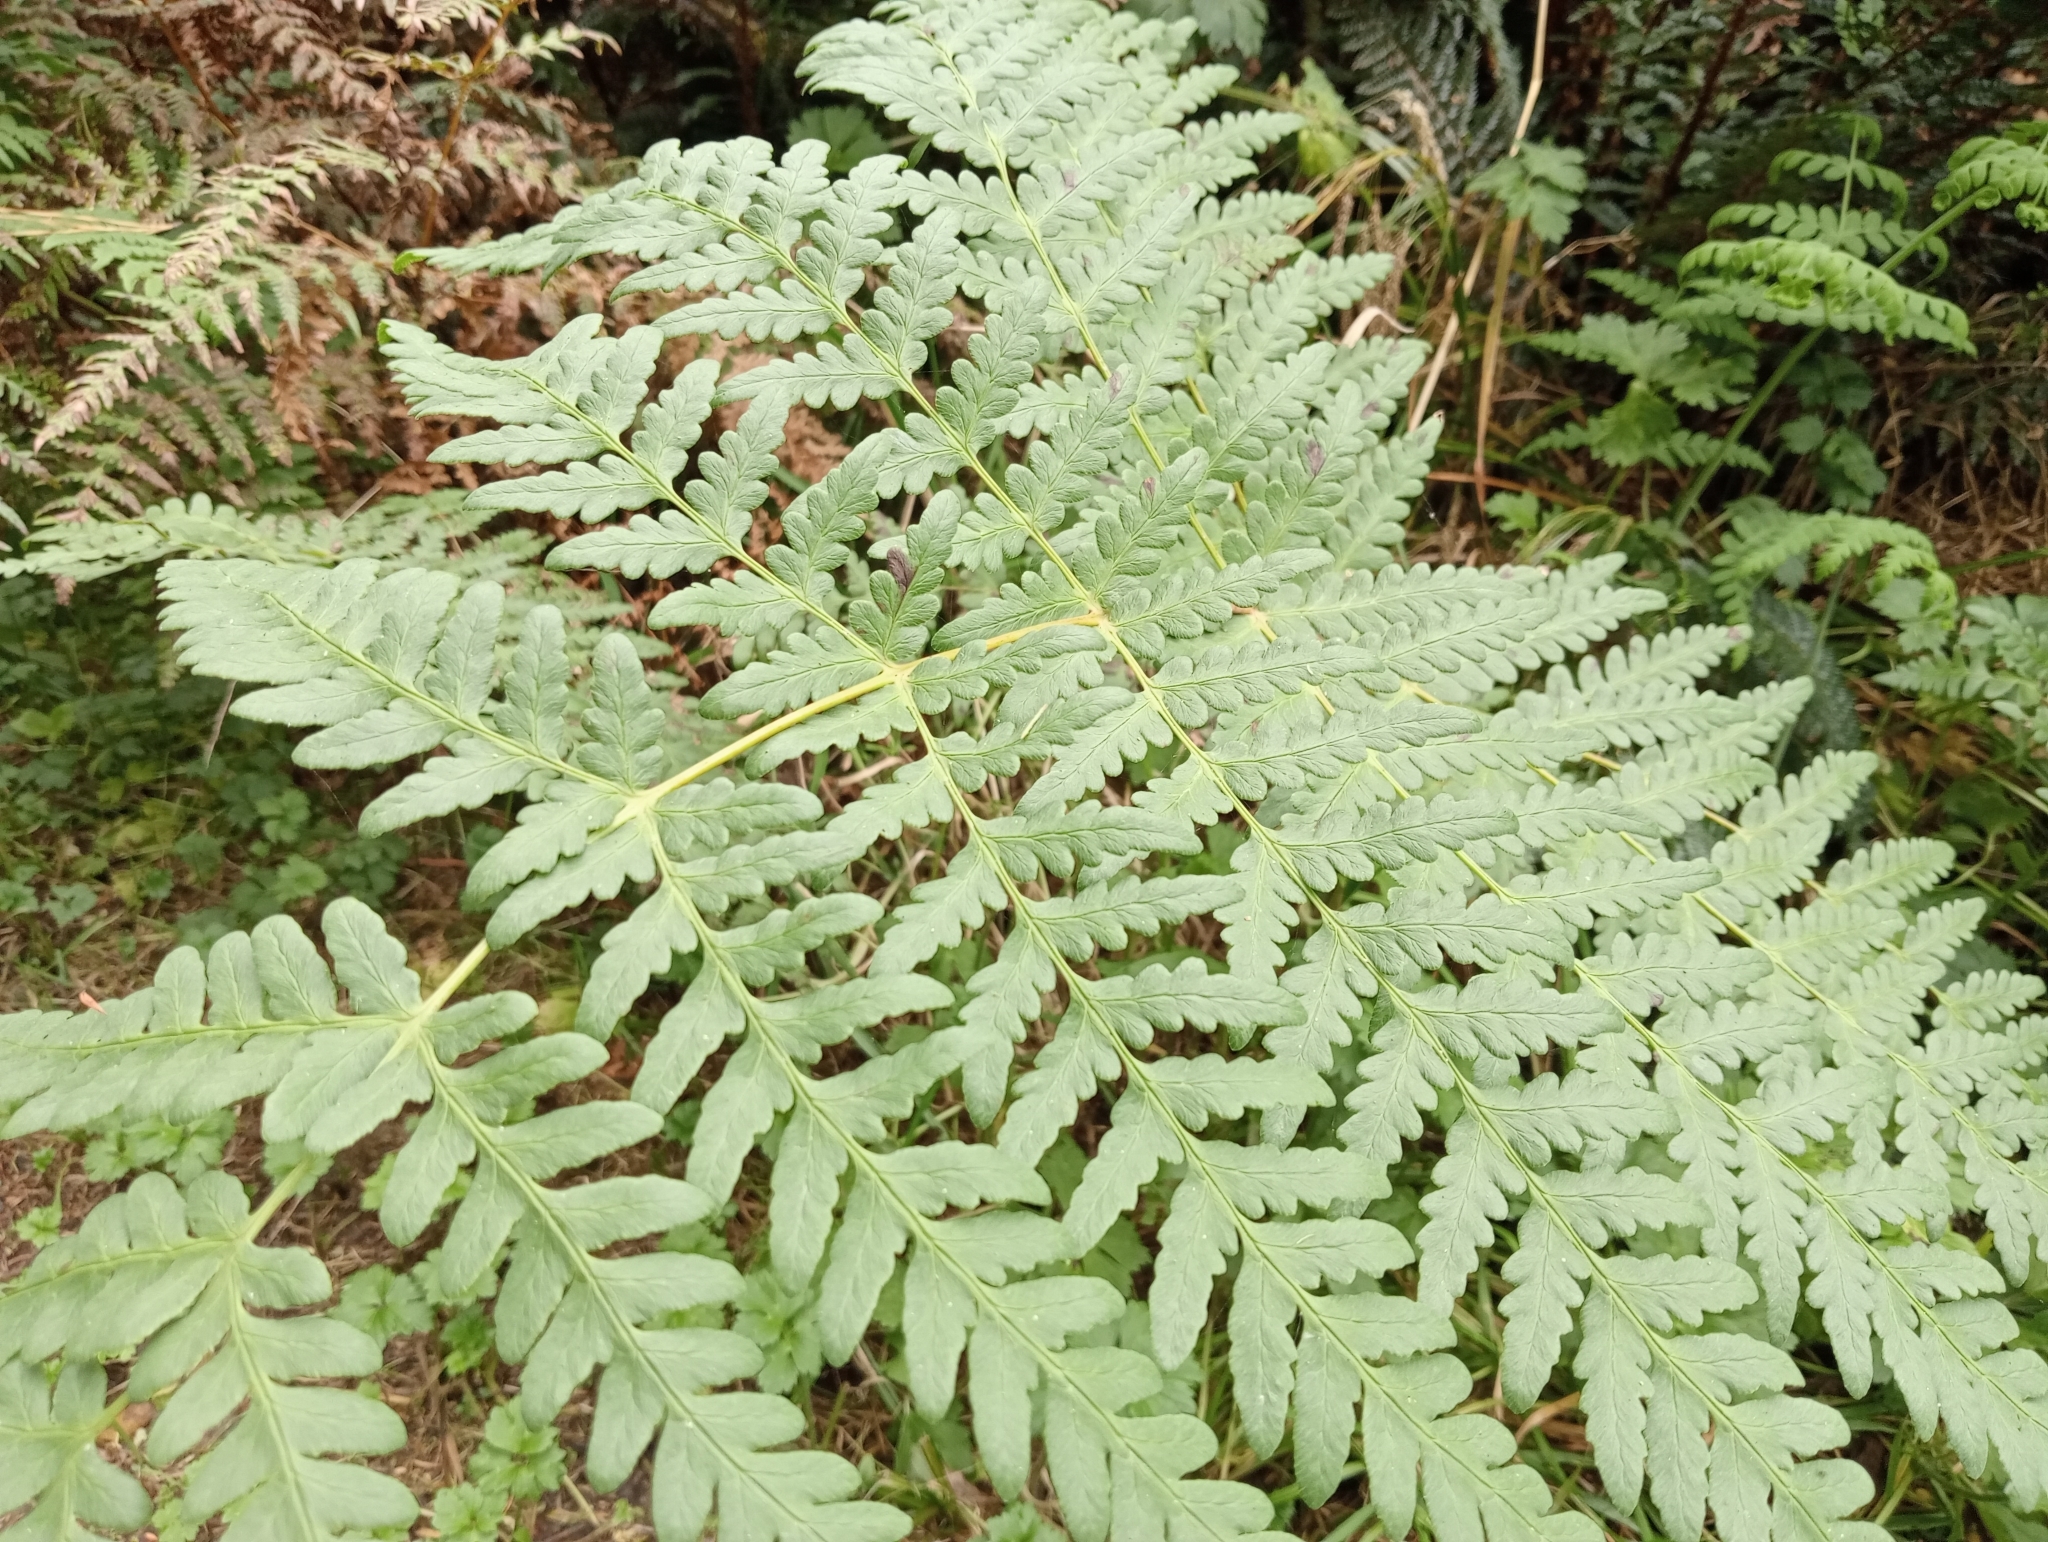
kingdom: Plantae
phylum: Tracheophyta
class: Polypodiopsida
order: Polypodiales
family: Dennstaedtiaceae
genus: Histiopteris
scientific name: Histiopteris incisa
